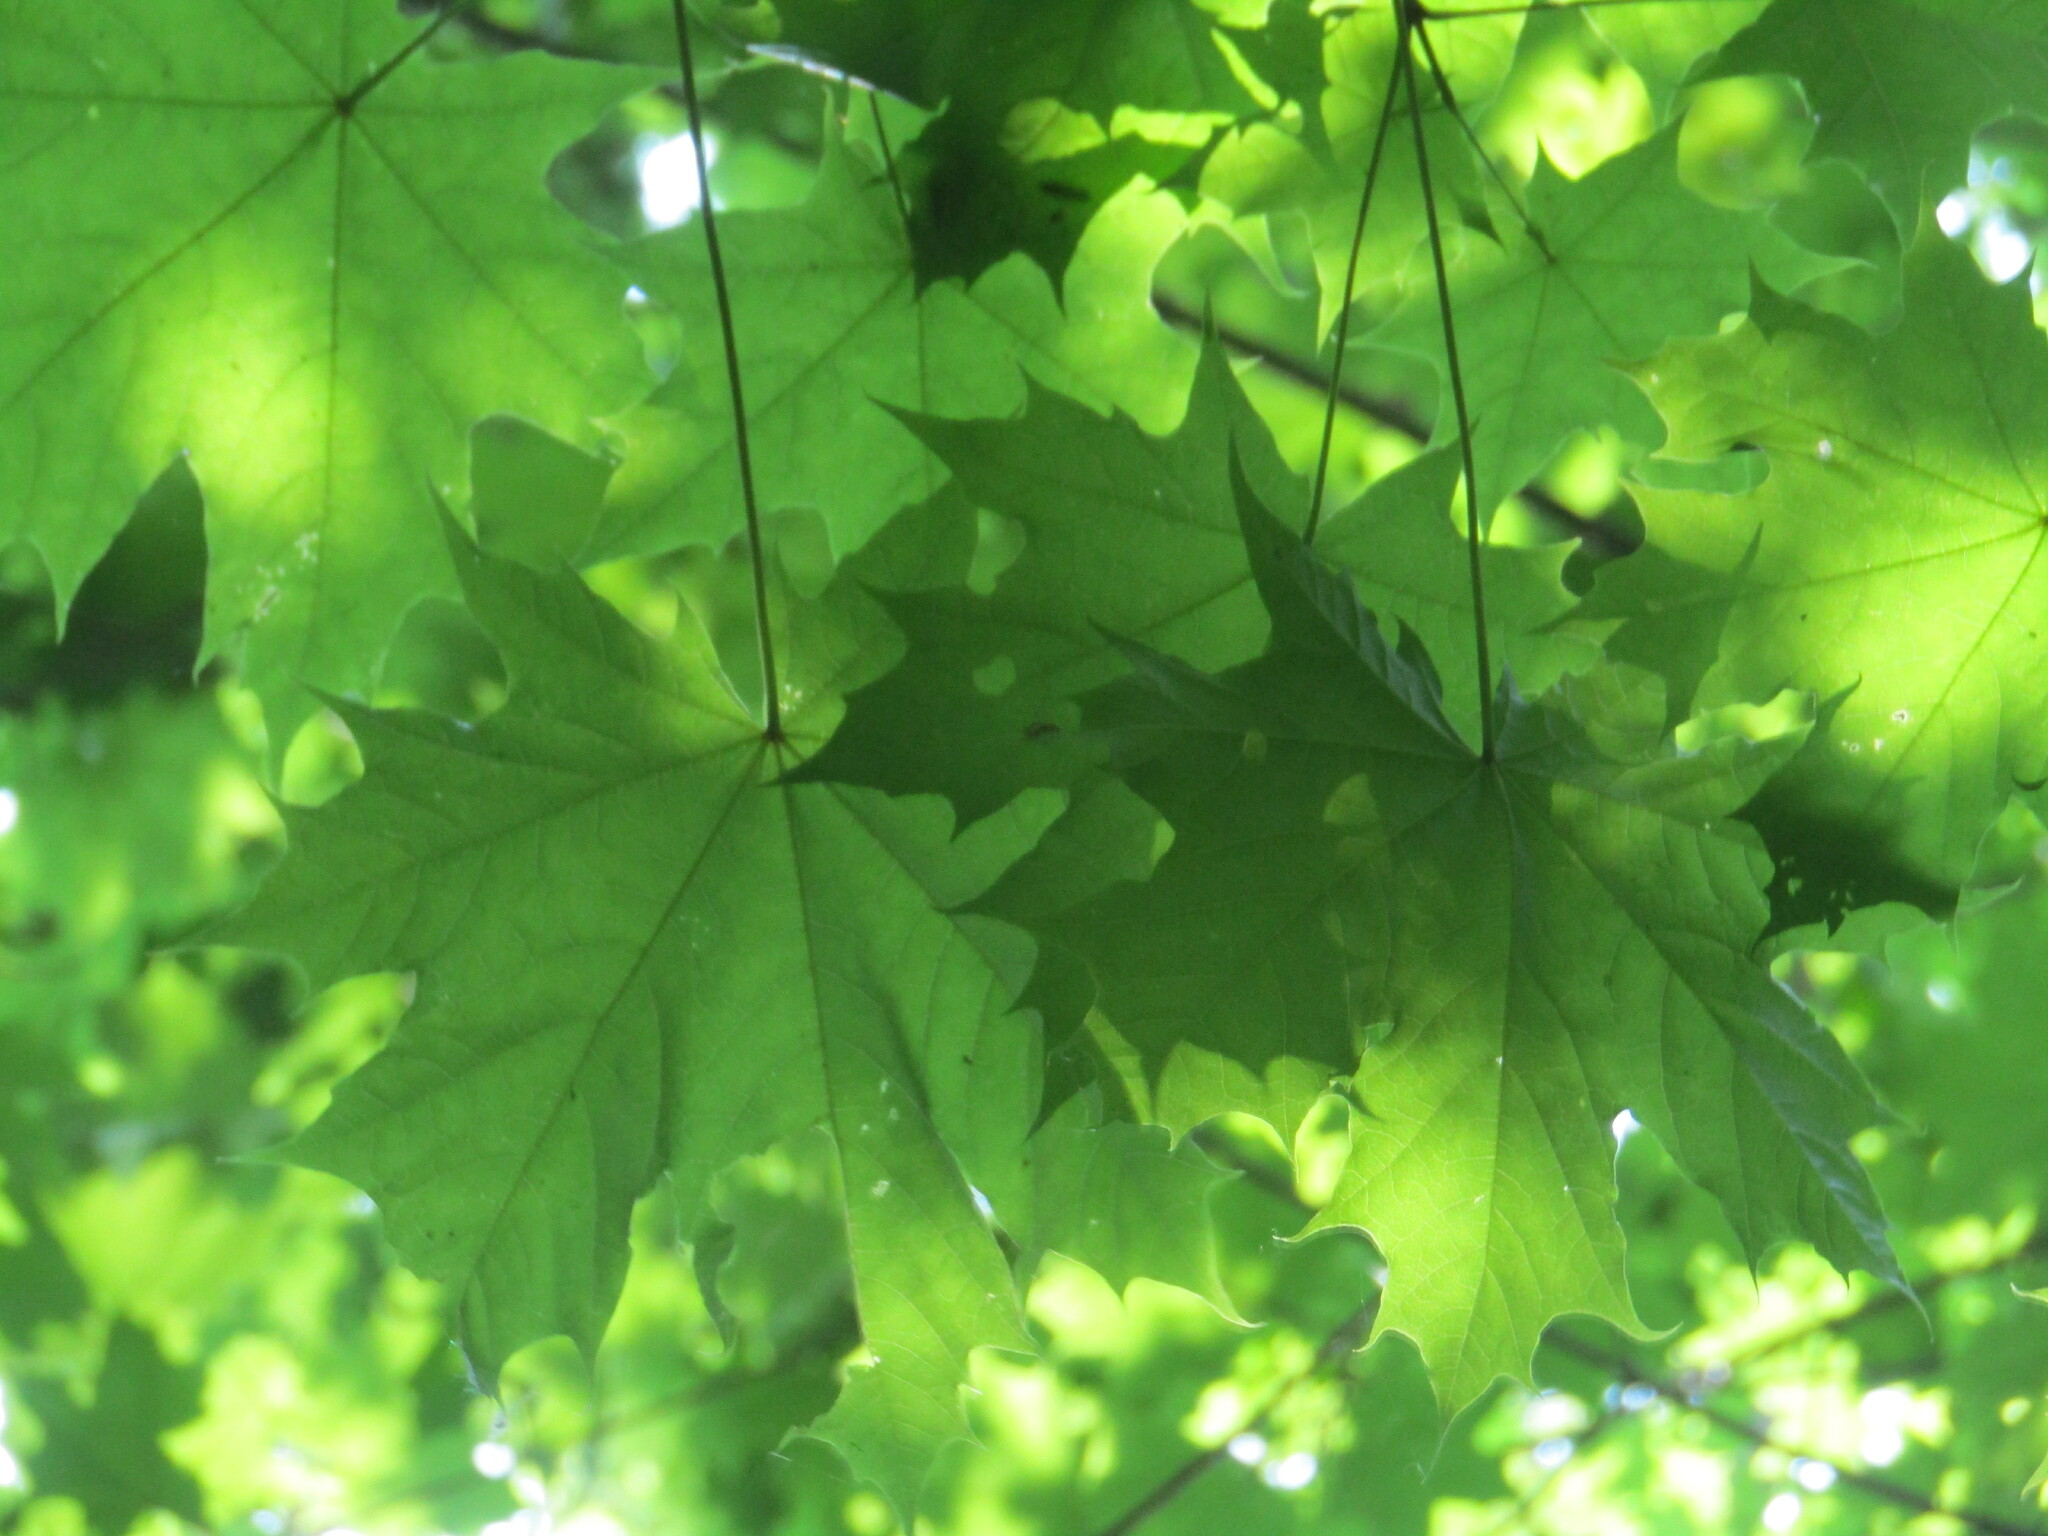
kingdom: Plantae
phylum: Tracheophyta
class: Magnoliopsida
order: Sapindales
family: Sapindaceae
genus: Acer
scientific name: Acer platanoides
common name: Norway maple
